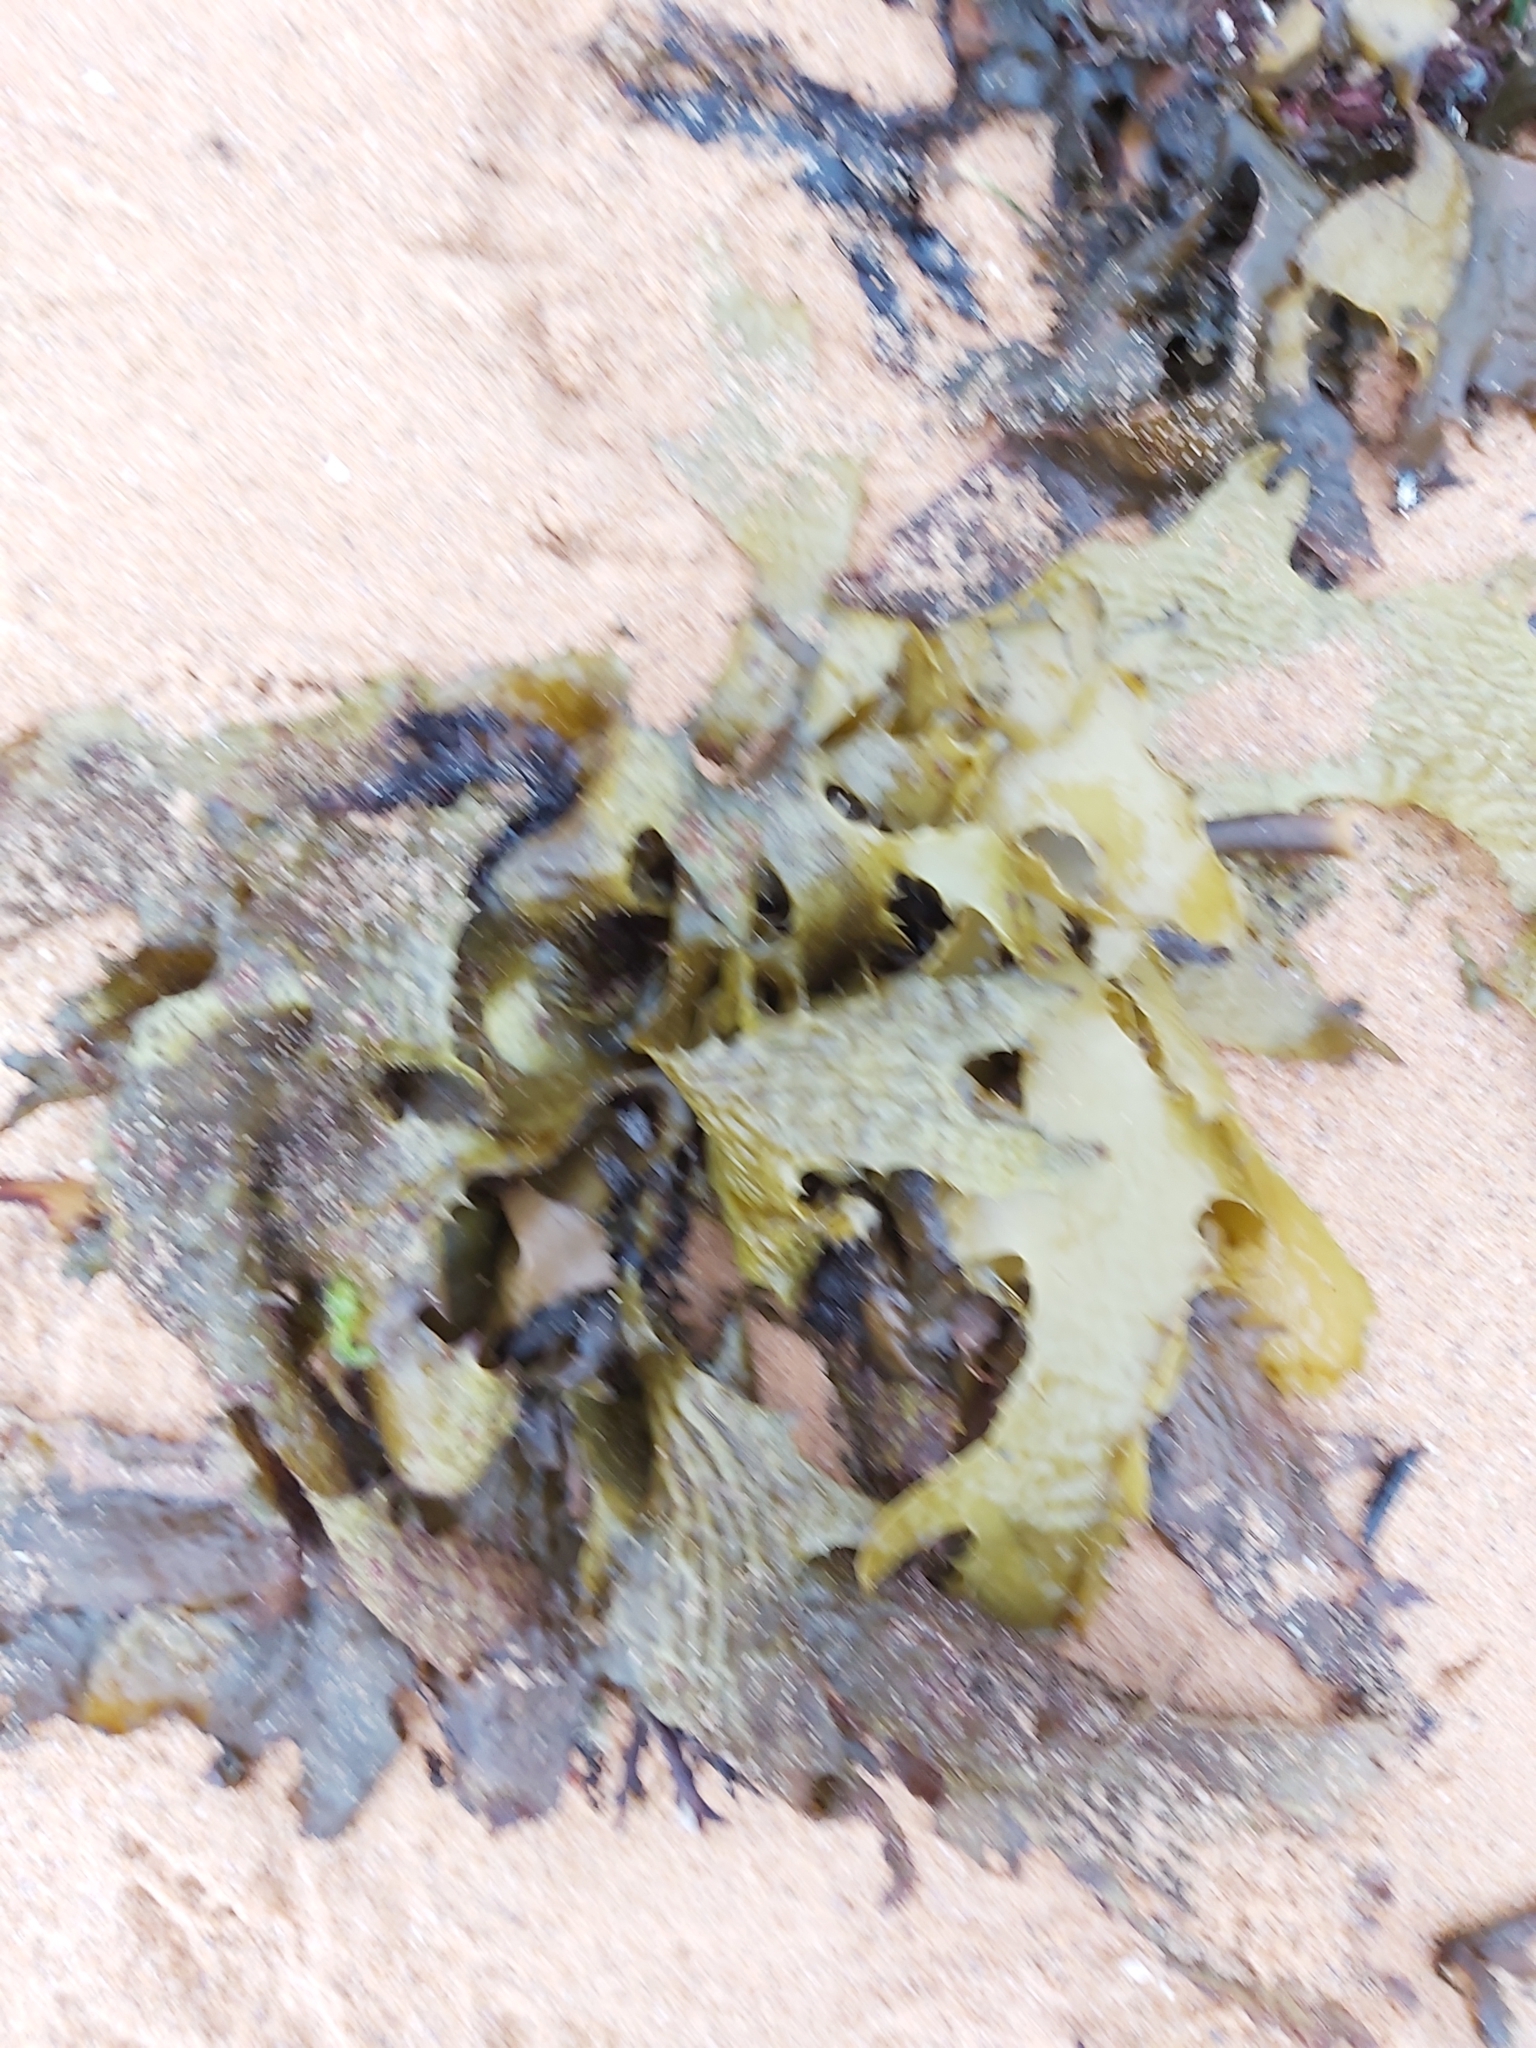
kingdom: Chromista
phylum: Ochrophyta
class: Phaeophyceae
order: Laminariales
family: Lessoniaceae
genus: Ecklonia
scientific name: Ecklonia radiata
